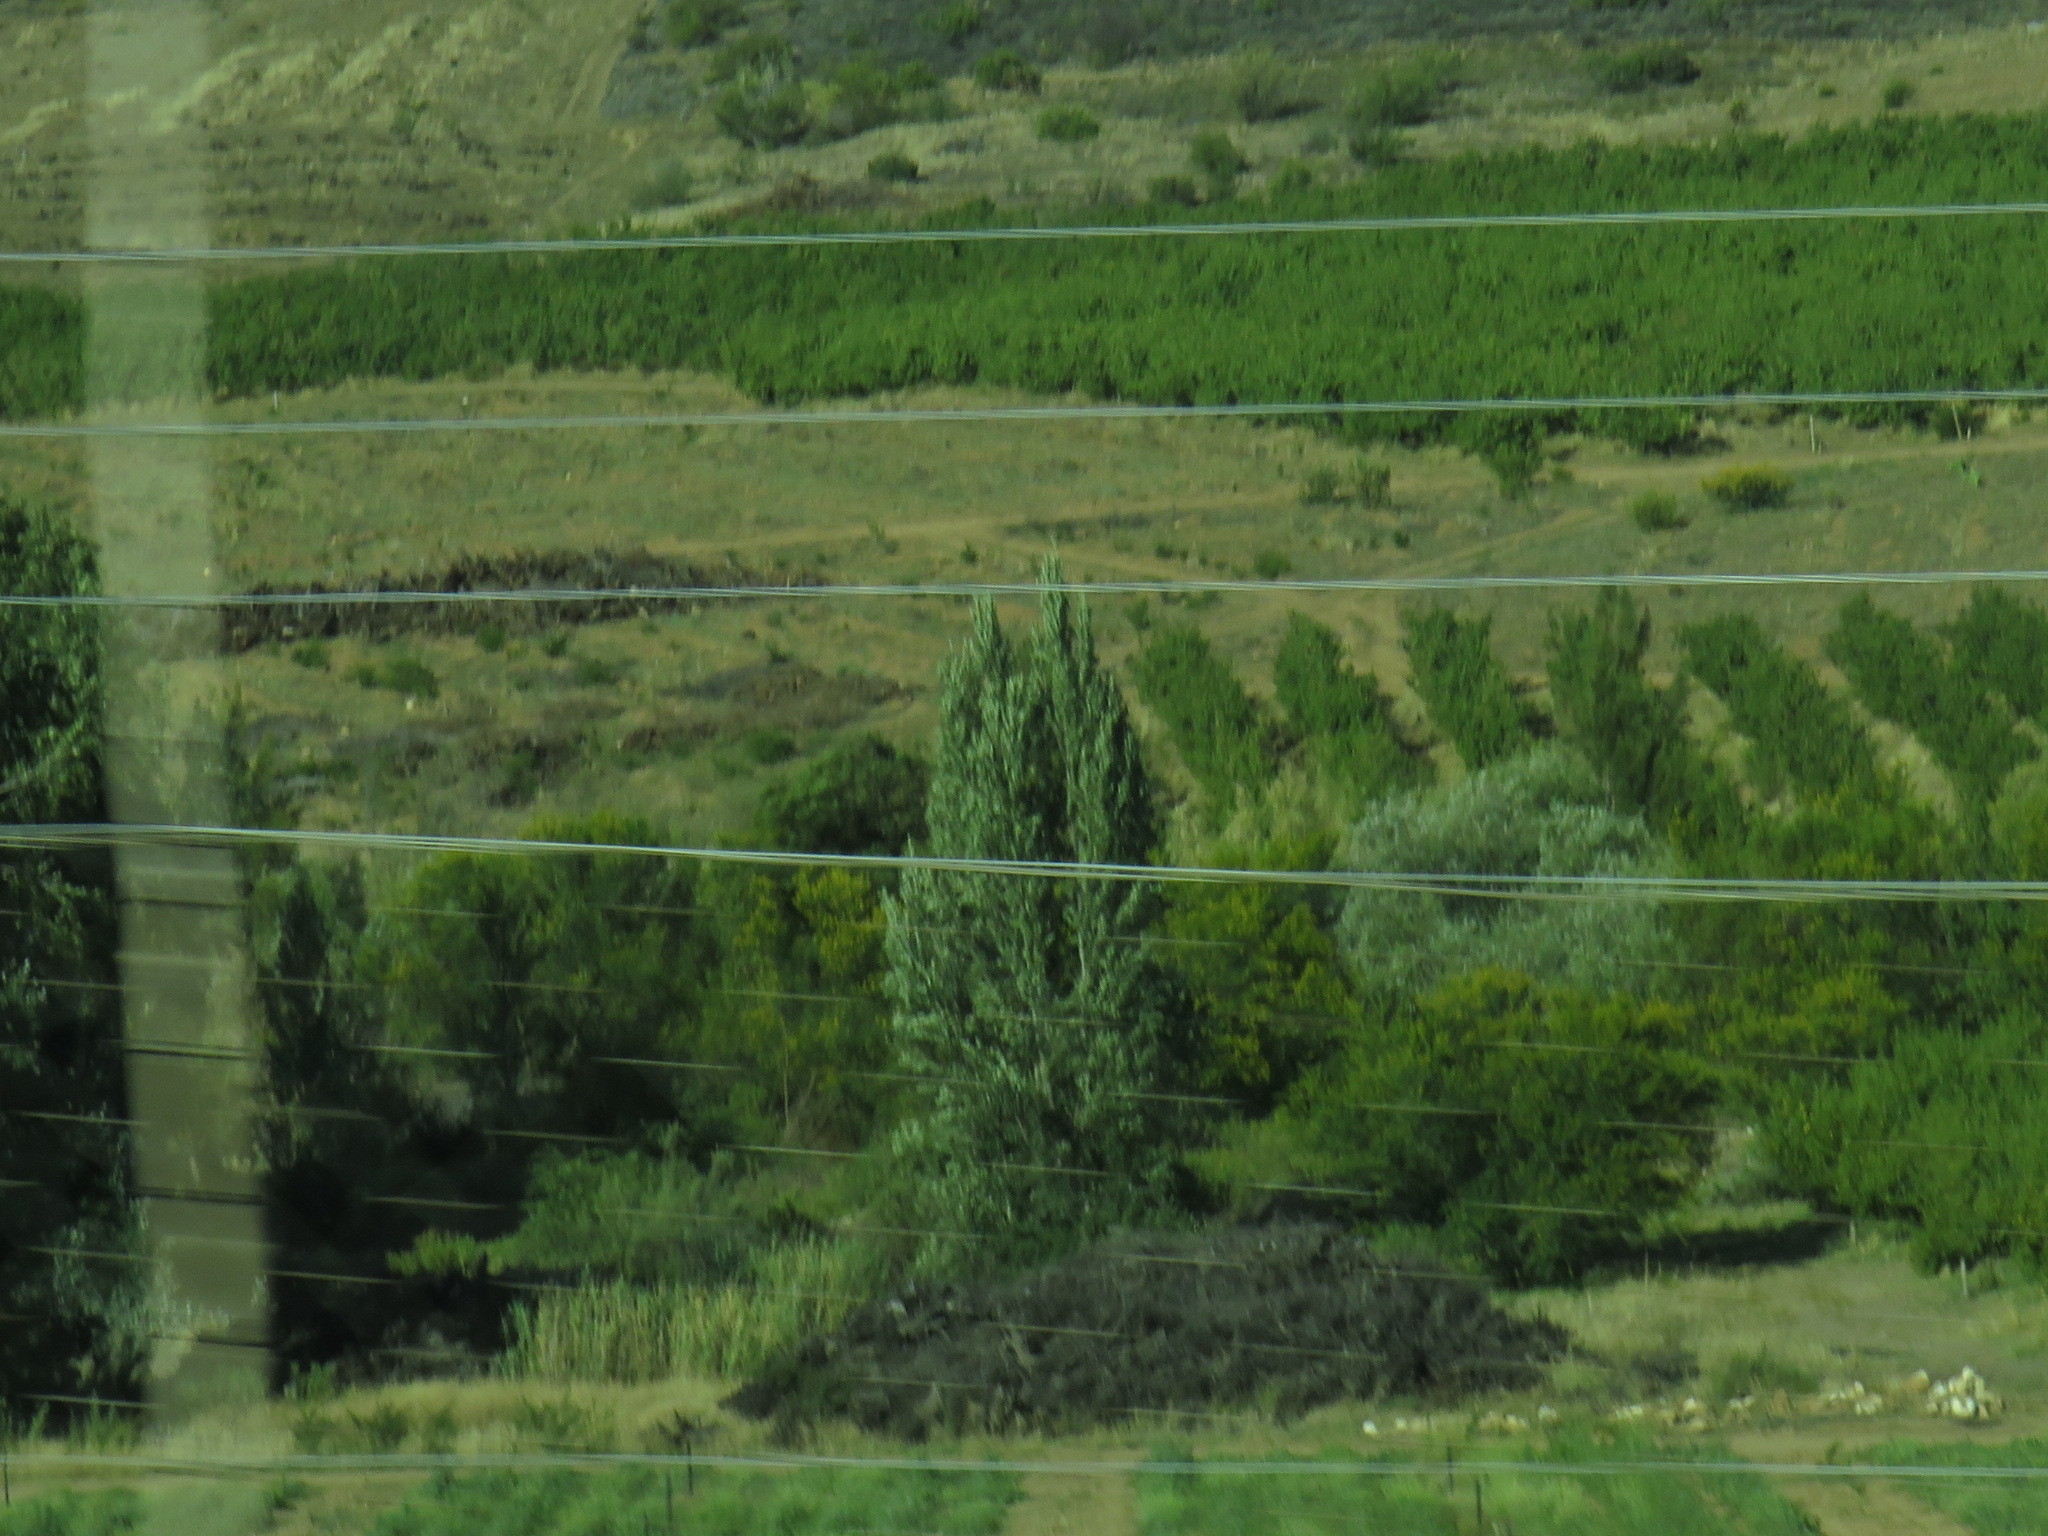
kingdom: Plantae
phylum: Tracheophyta
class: Magnoliopsida
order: Malpighiales
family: Salicaceae
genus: Populus
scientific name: Populus nigra
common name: Black poplar
